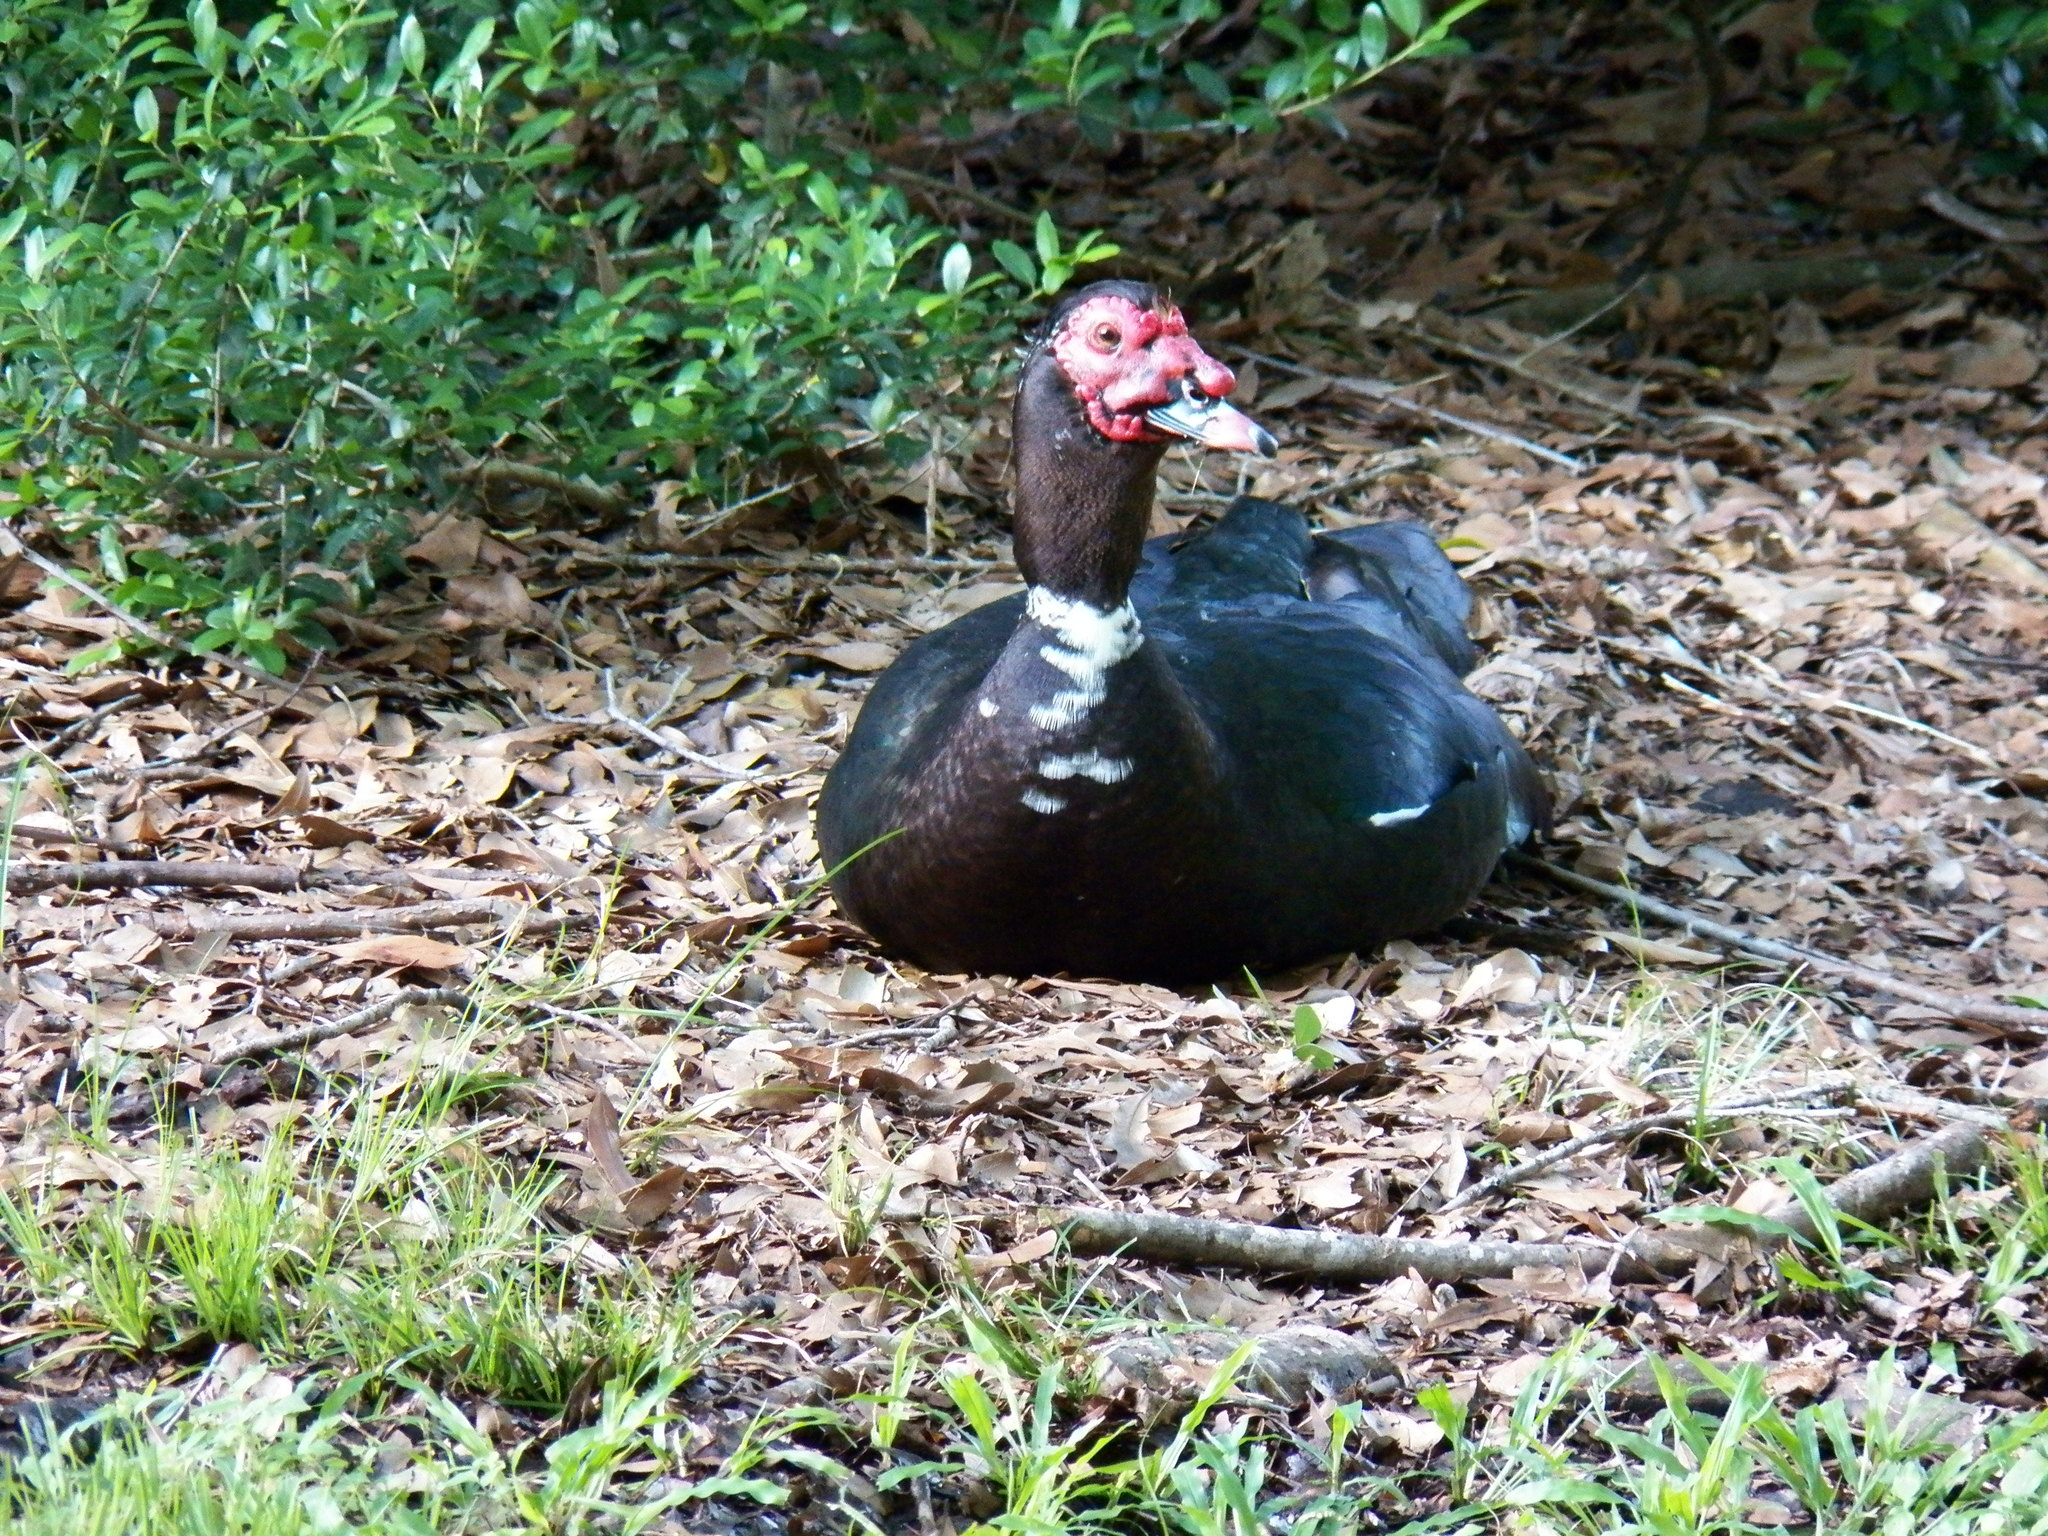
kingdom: Animalia
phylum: Chordata
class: Aves
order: Anseriformes
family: Anatidae
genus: Cairina
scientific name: Cairina moschata
